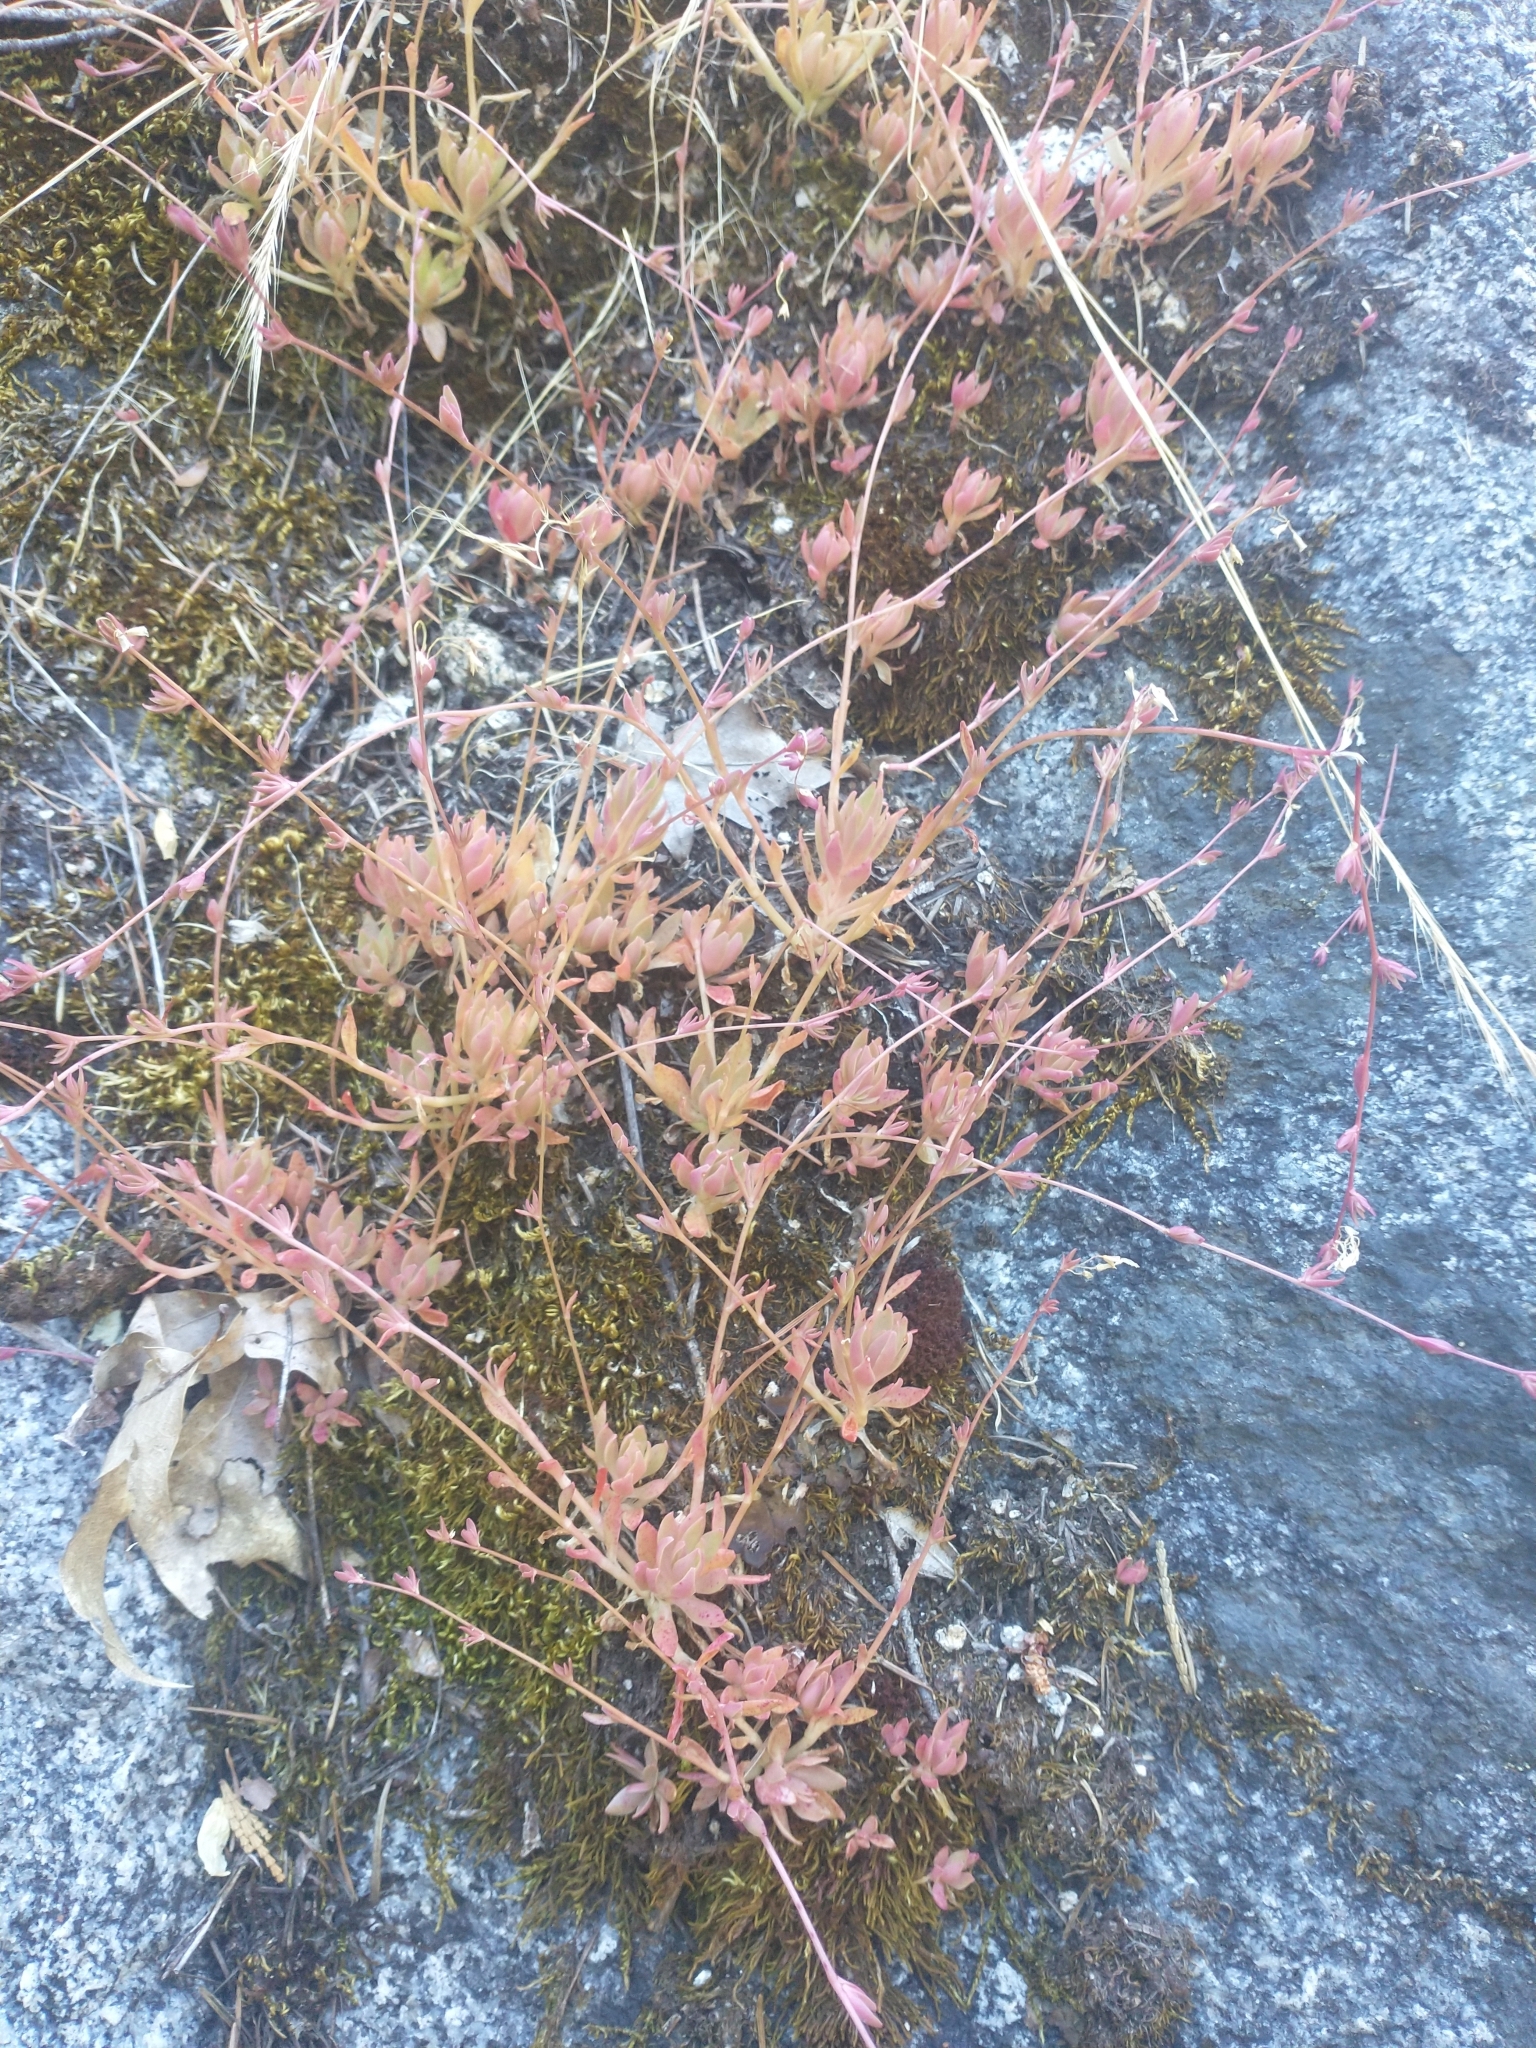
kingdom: Plantae
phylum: Tracheophyta
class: Magnoliopsida
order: Caryophyllales
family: Montiaceae
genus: Montia
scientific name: Montia parvifolia
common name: Small-leaved blinks
